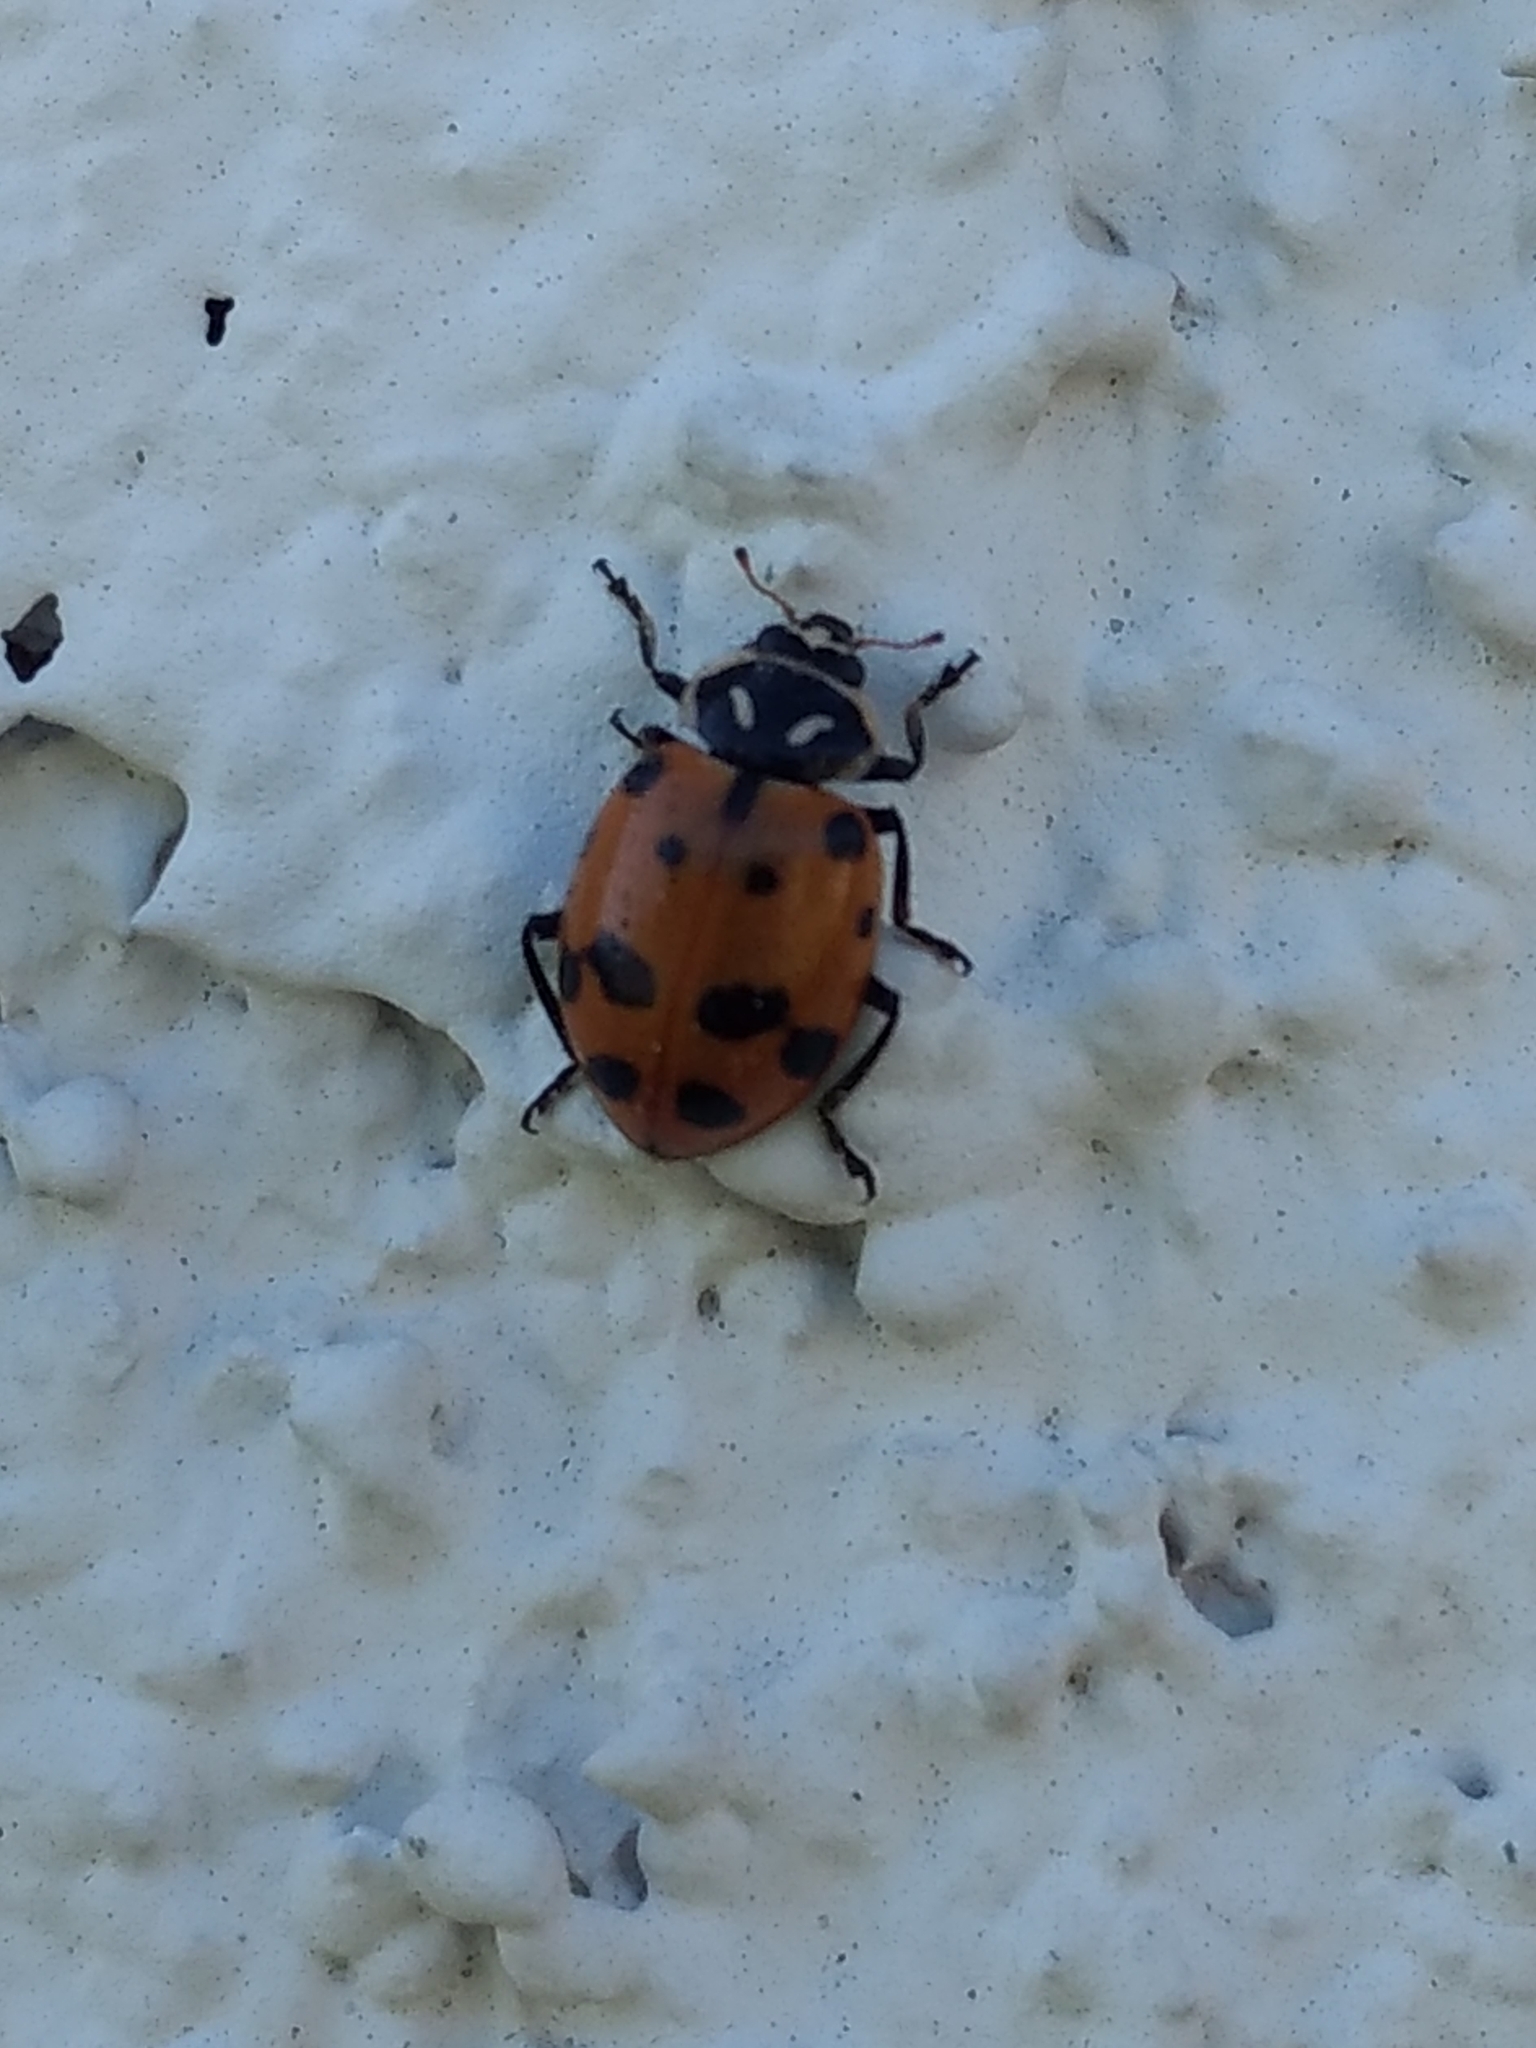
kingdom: Animalia
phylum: Arthropoda
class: Insecta
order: Coleoptera
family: Coccinellidae
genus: Hippodamia
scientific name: Hippodamia convergens
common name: Convergent lady beetle
